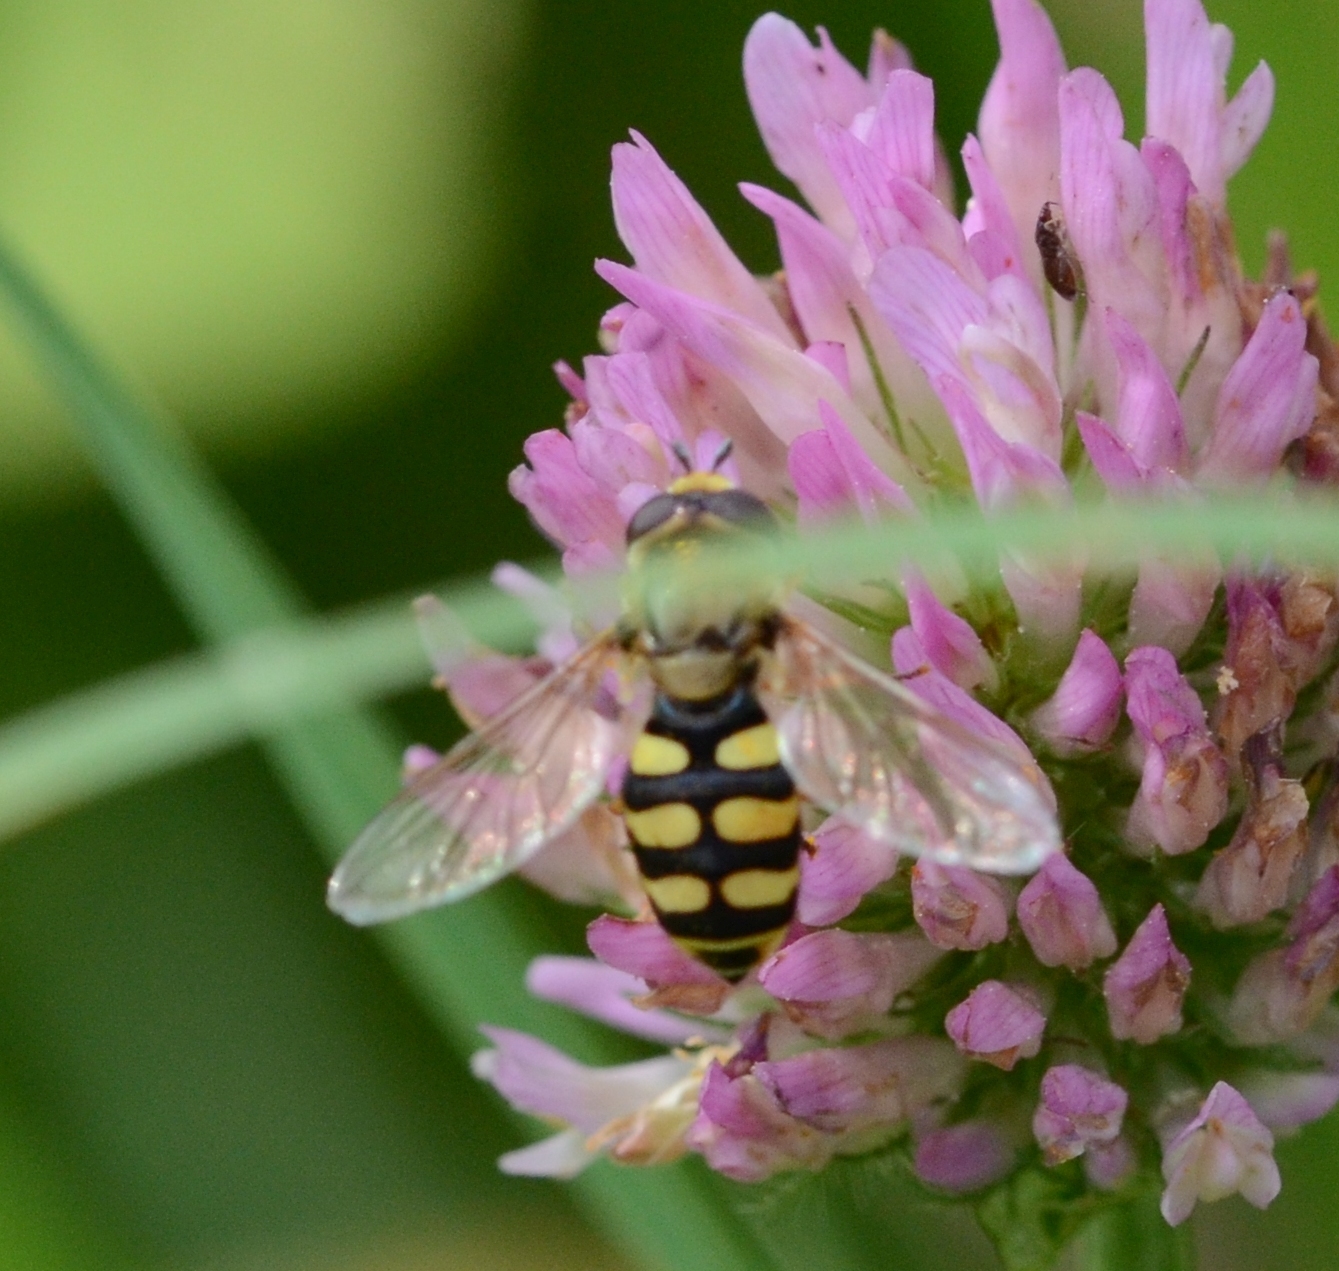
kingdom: Animalia
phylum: Arthropoda
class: Insecta
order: Diptera
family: Syrphidae
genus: Eupeodes
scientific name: Eupeodes corollae
